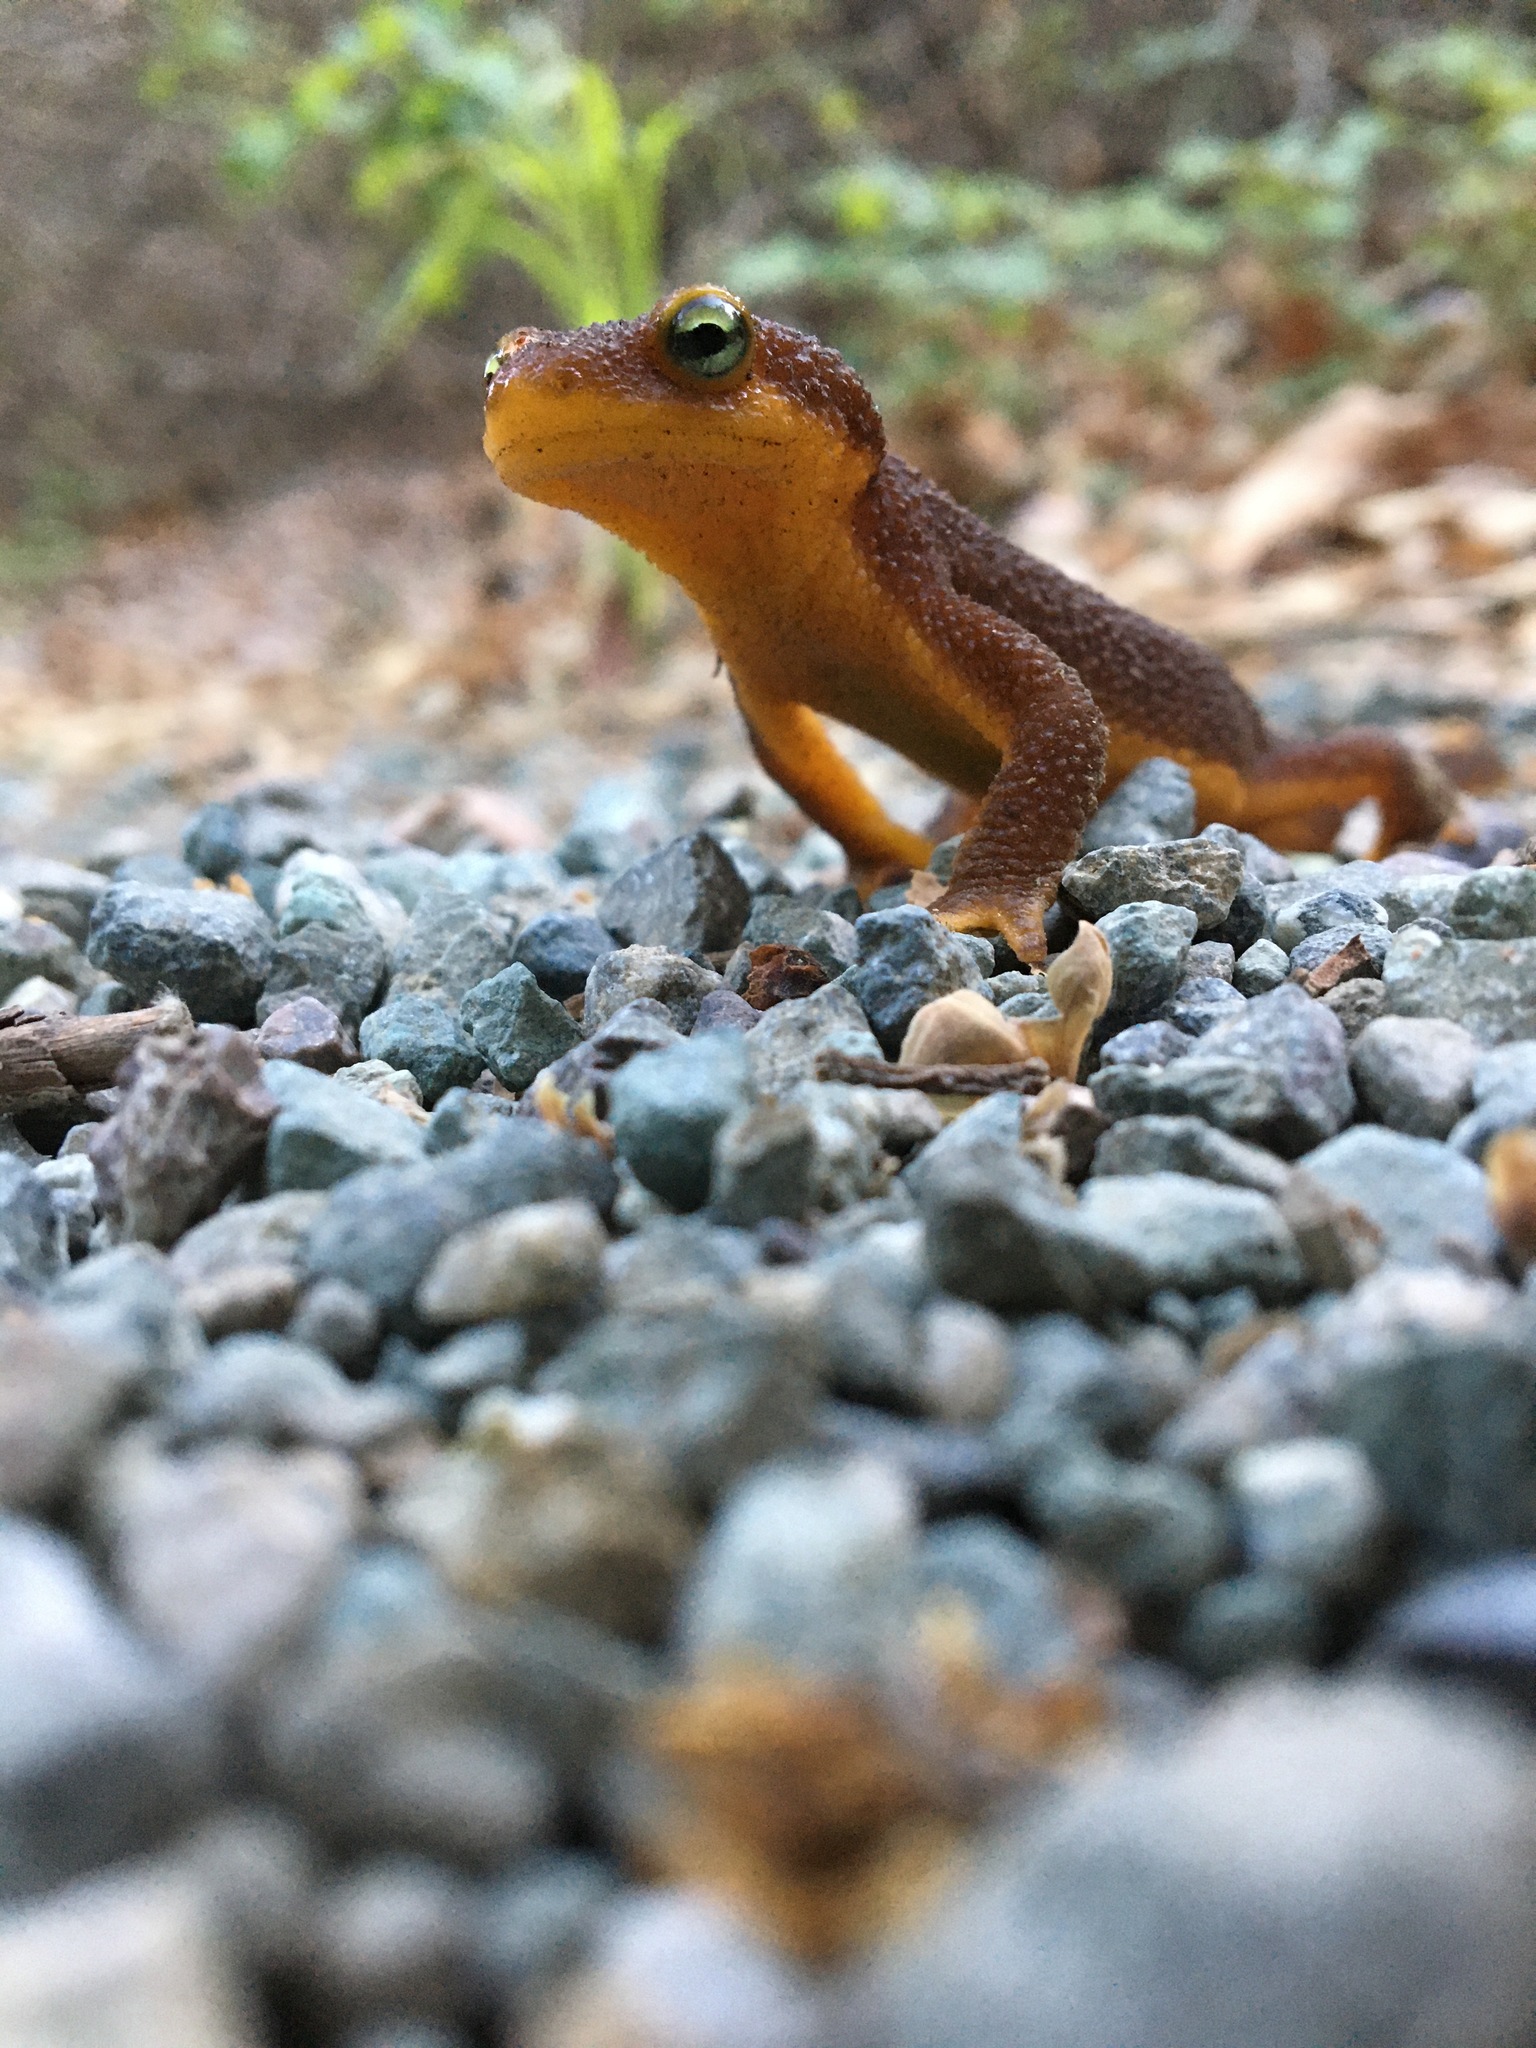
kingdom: Animalia
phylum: Chordata
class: Amphibia
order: Caudata
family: Salamandridae
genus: Taricha
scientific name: Taricha torosa
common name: California newt
